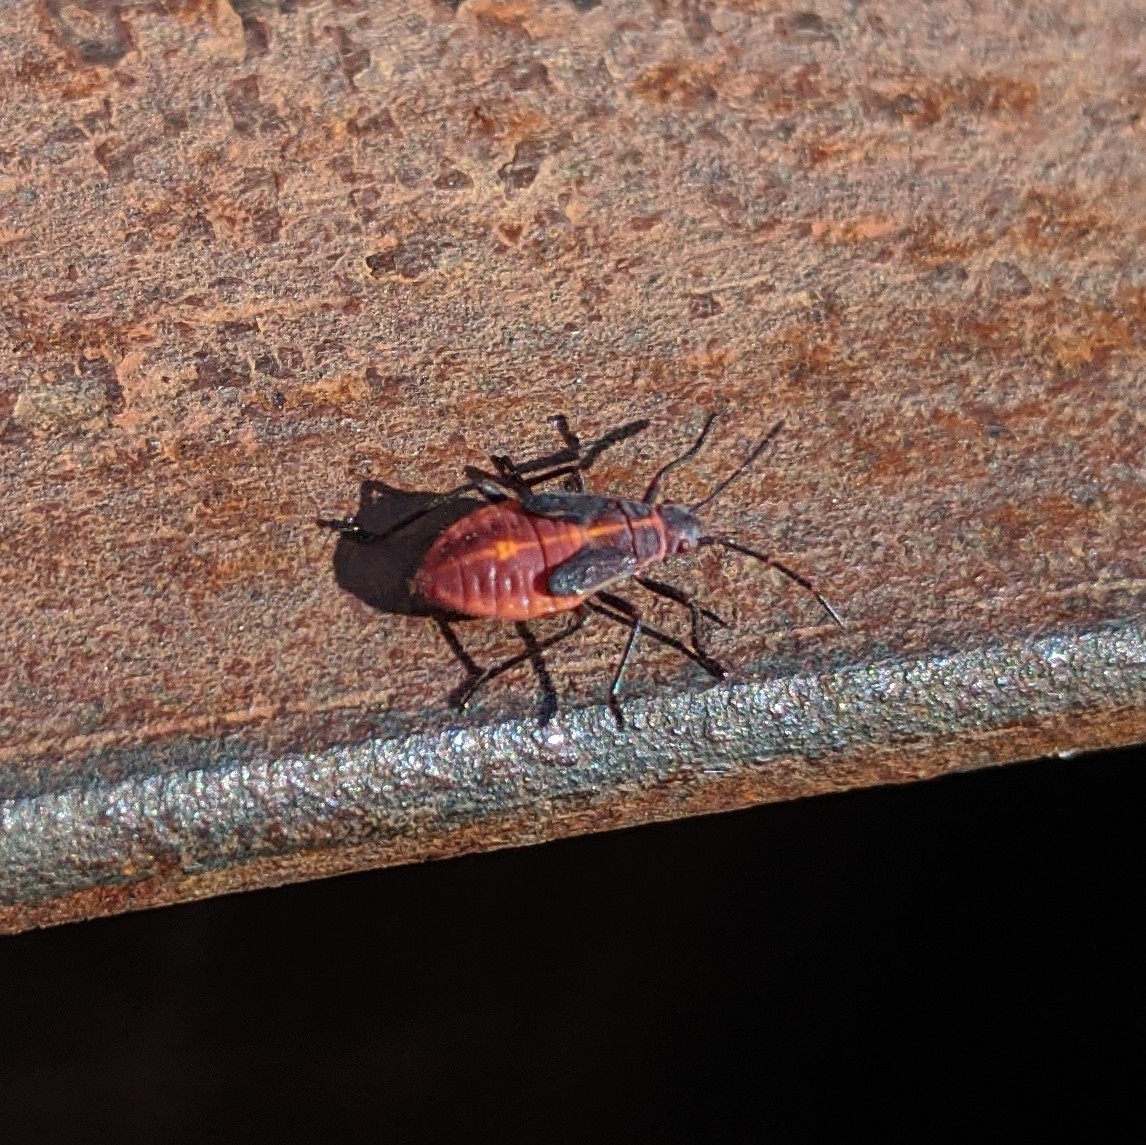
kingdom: Animalia
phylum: Arthropoda
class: Insecta
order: Hemiptera
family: Rhopalidae
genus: Boisea
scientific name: Boisea trivittata
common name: Boxelder bug
